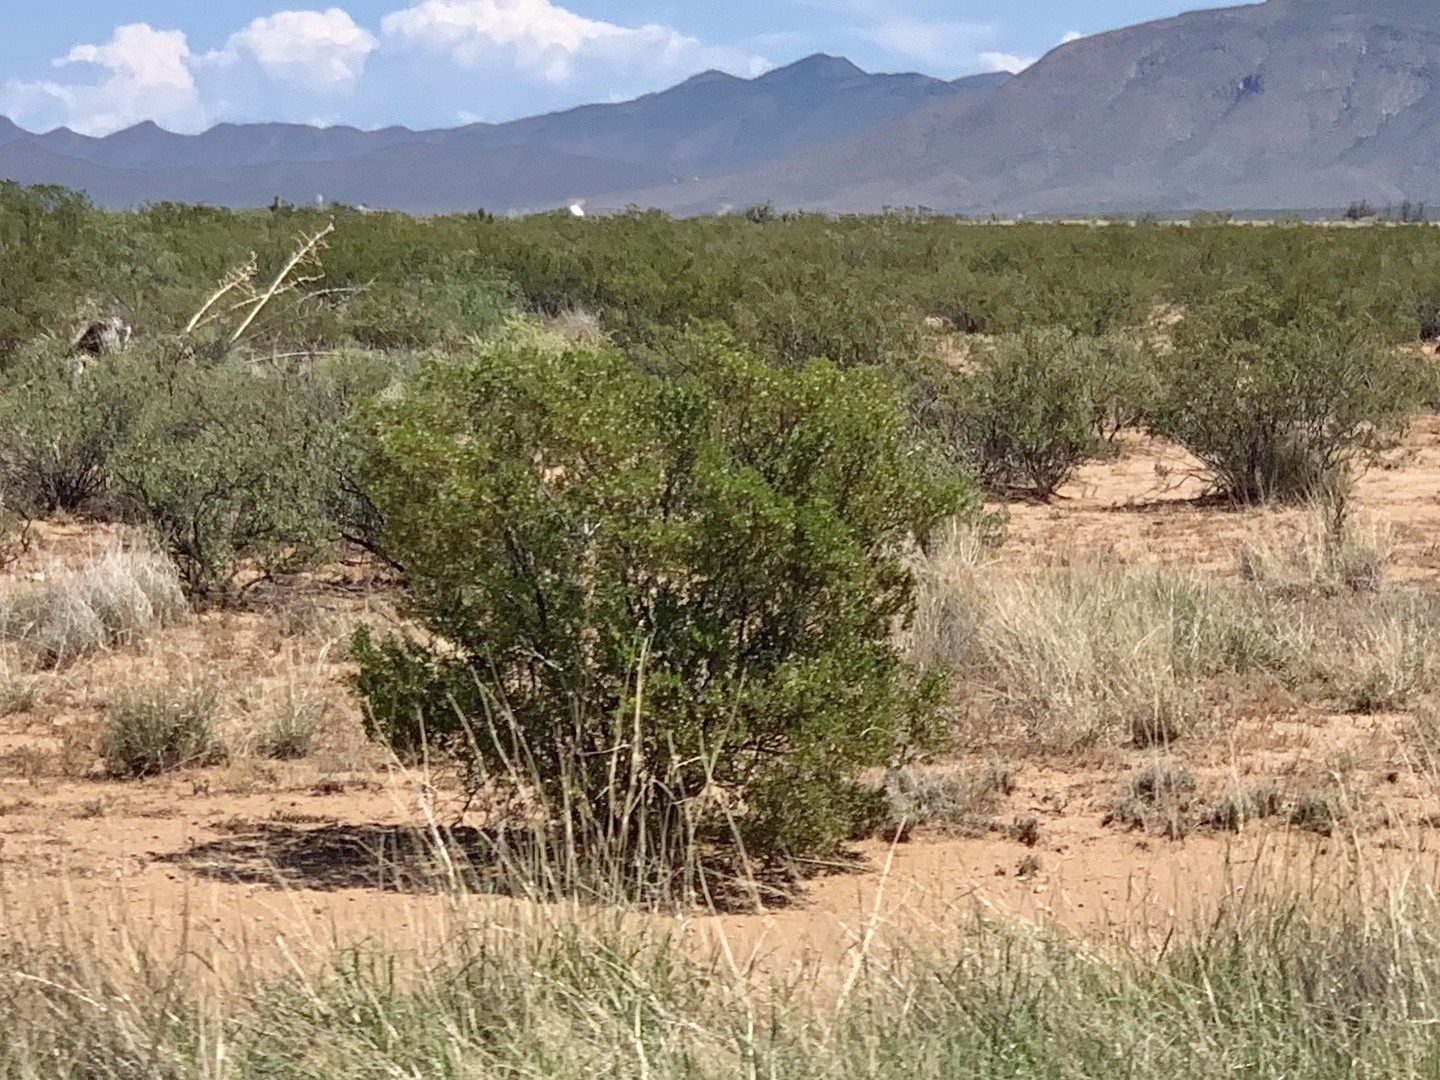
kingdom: Plantae
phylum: Tracheophyta
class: Magnoliopsida
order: Zygophyllales
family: Zygophyllaceae
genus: Larrea
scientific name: Larrea tridentata
